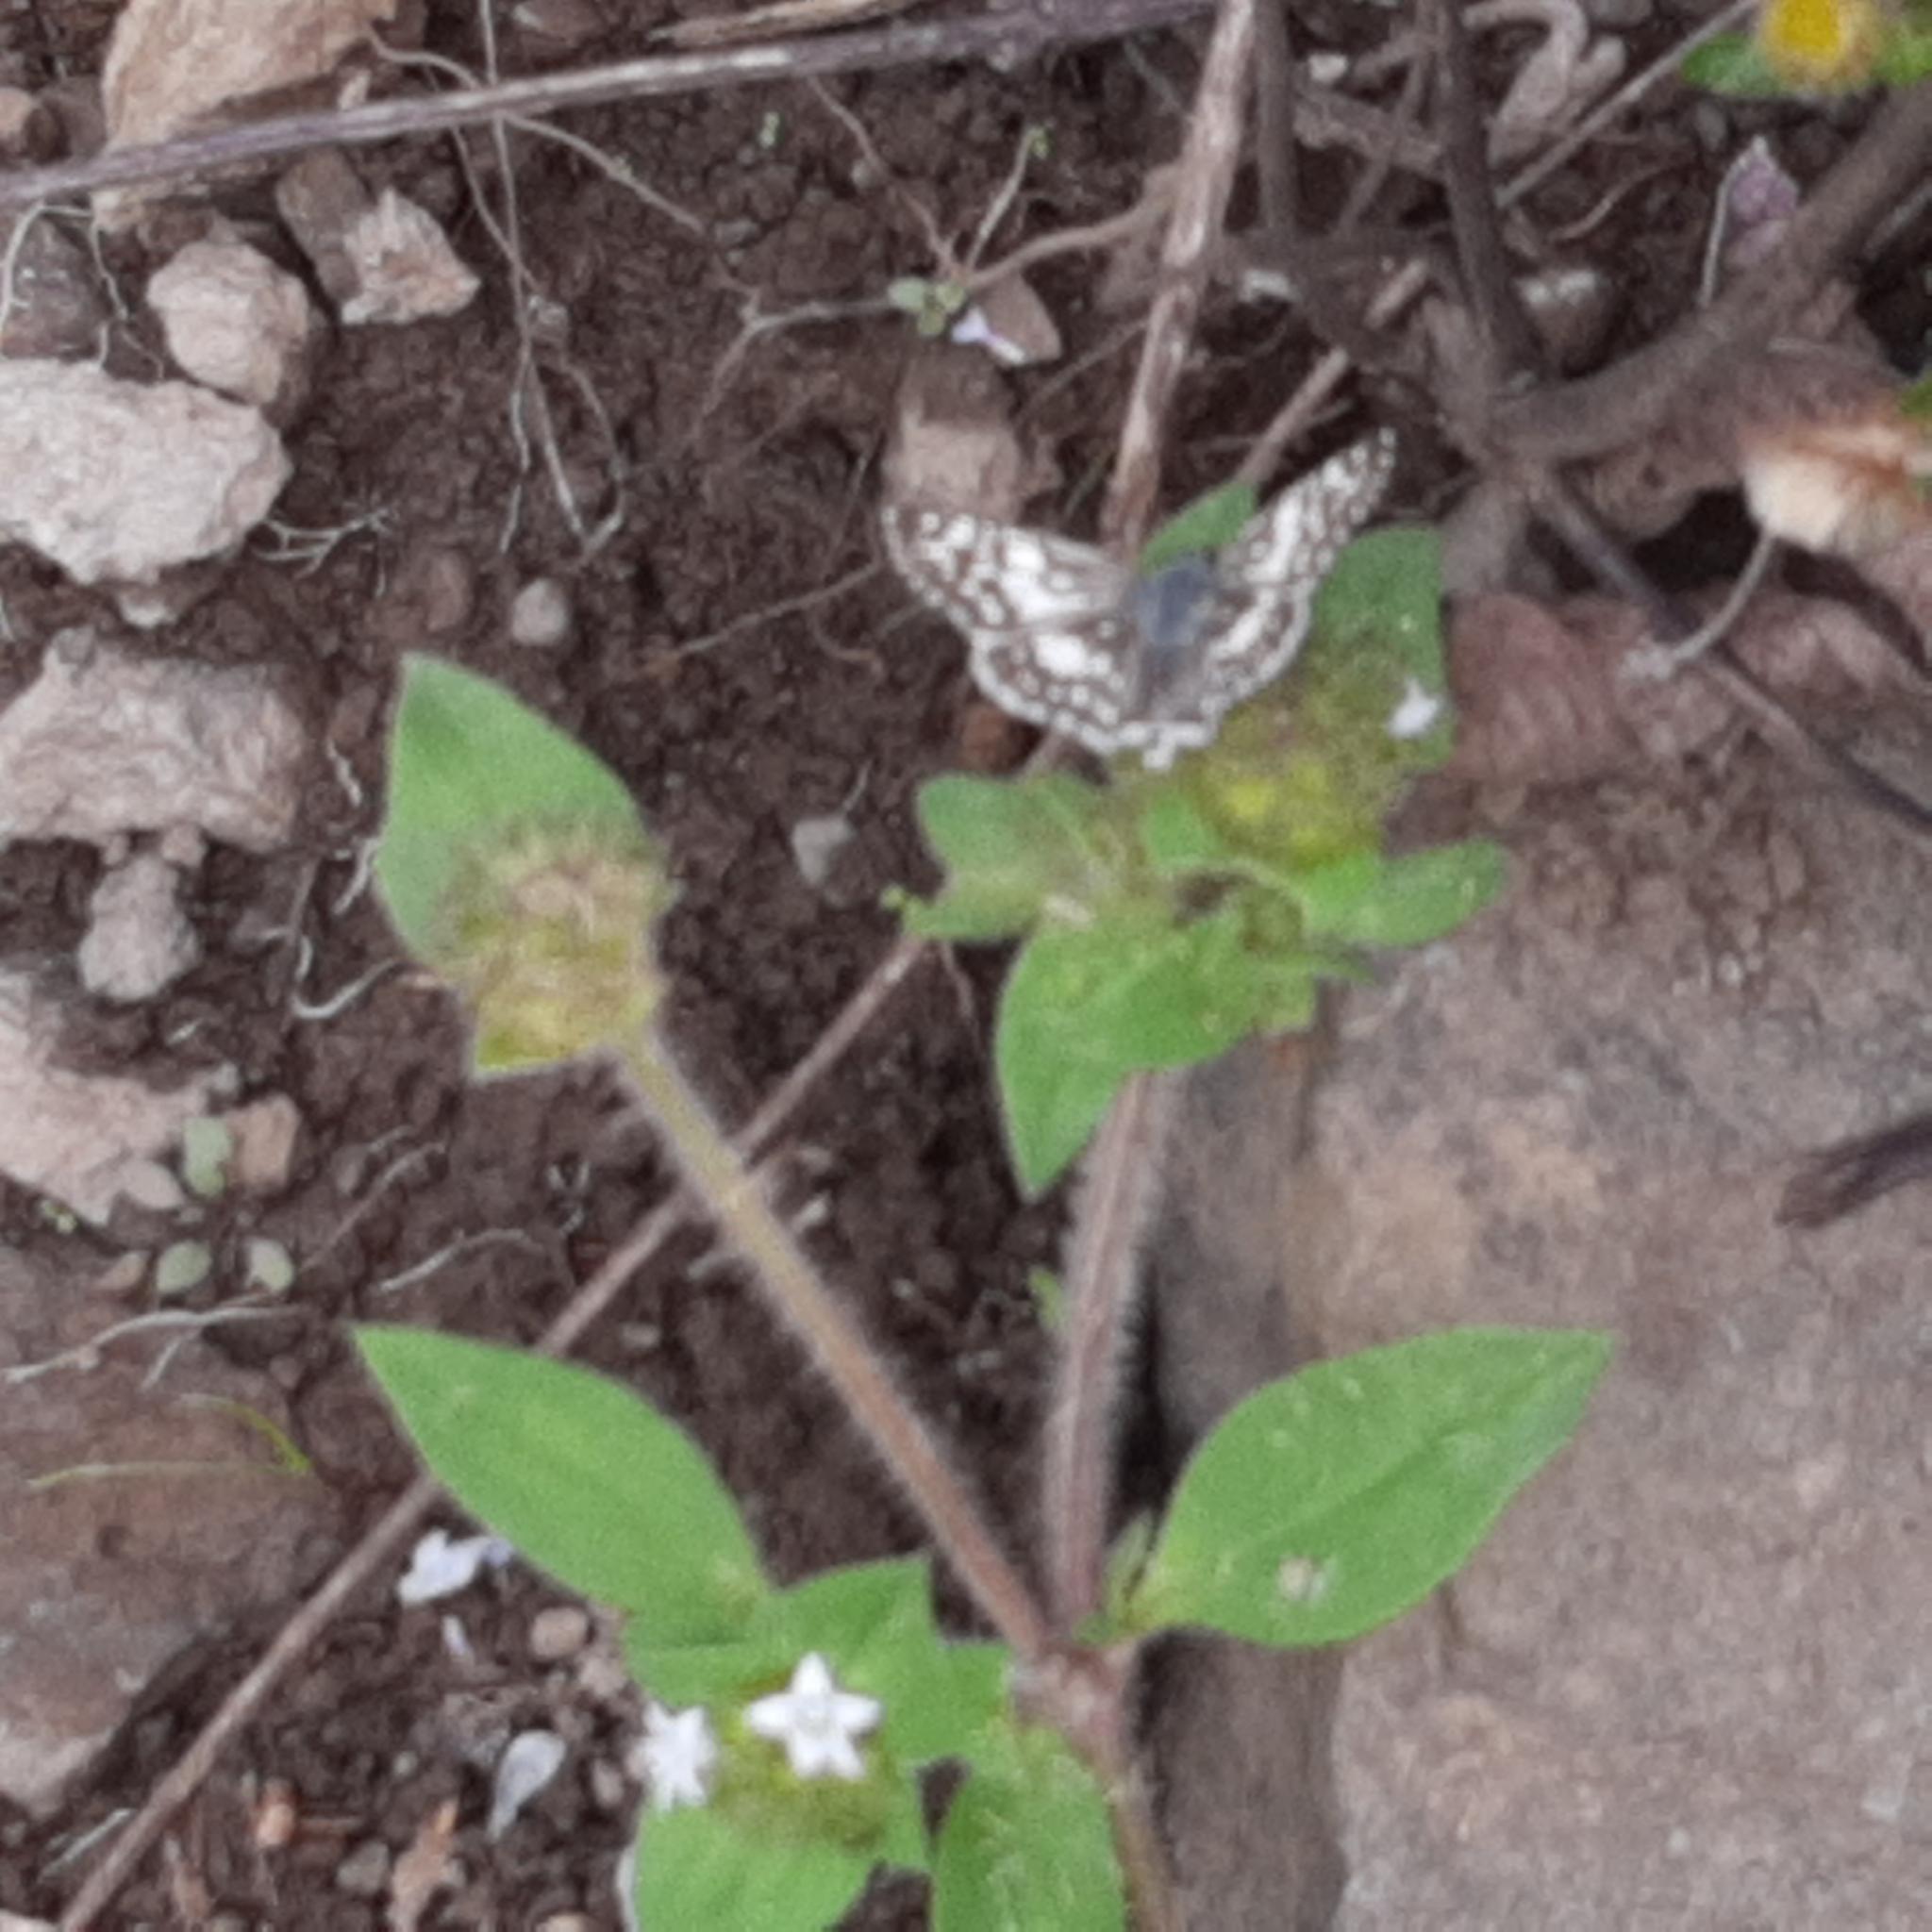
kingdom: Animalia
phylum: Arthropoda
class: Insecta
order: Lepidoptera
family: Hesperiidae
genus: Burnsius
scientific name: Burnsius adepta
